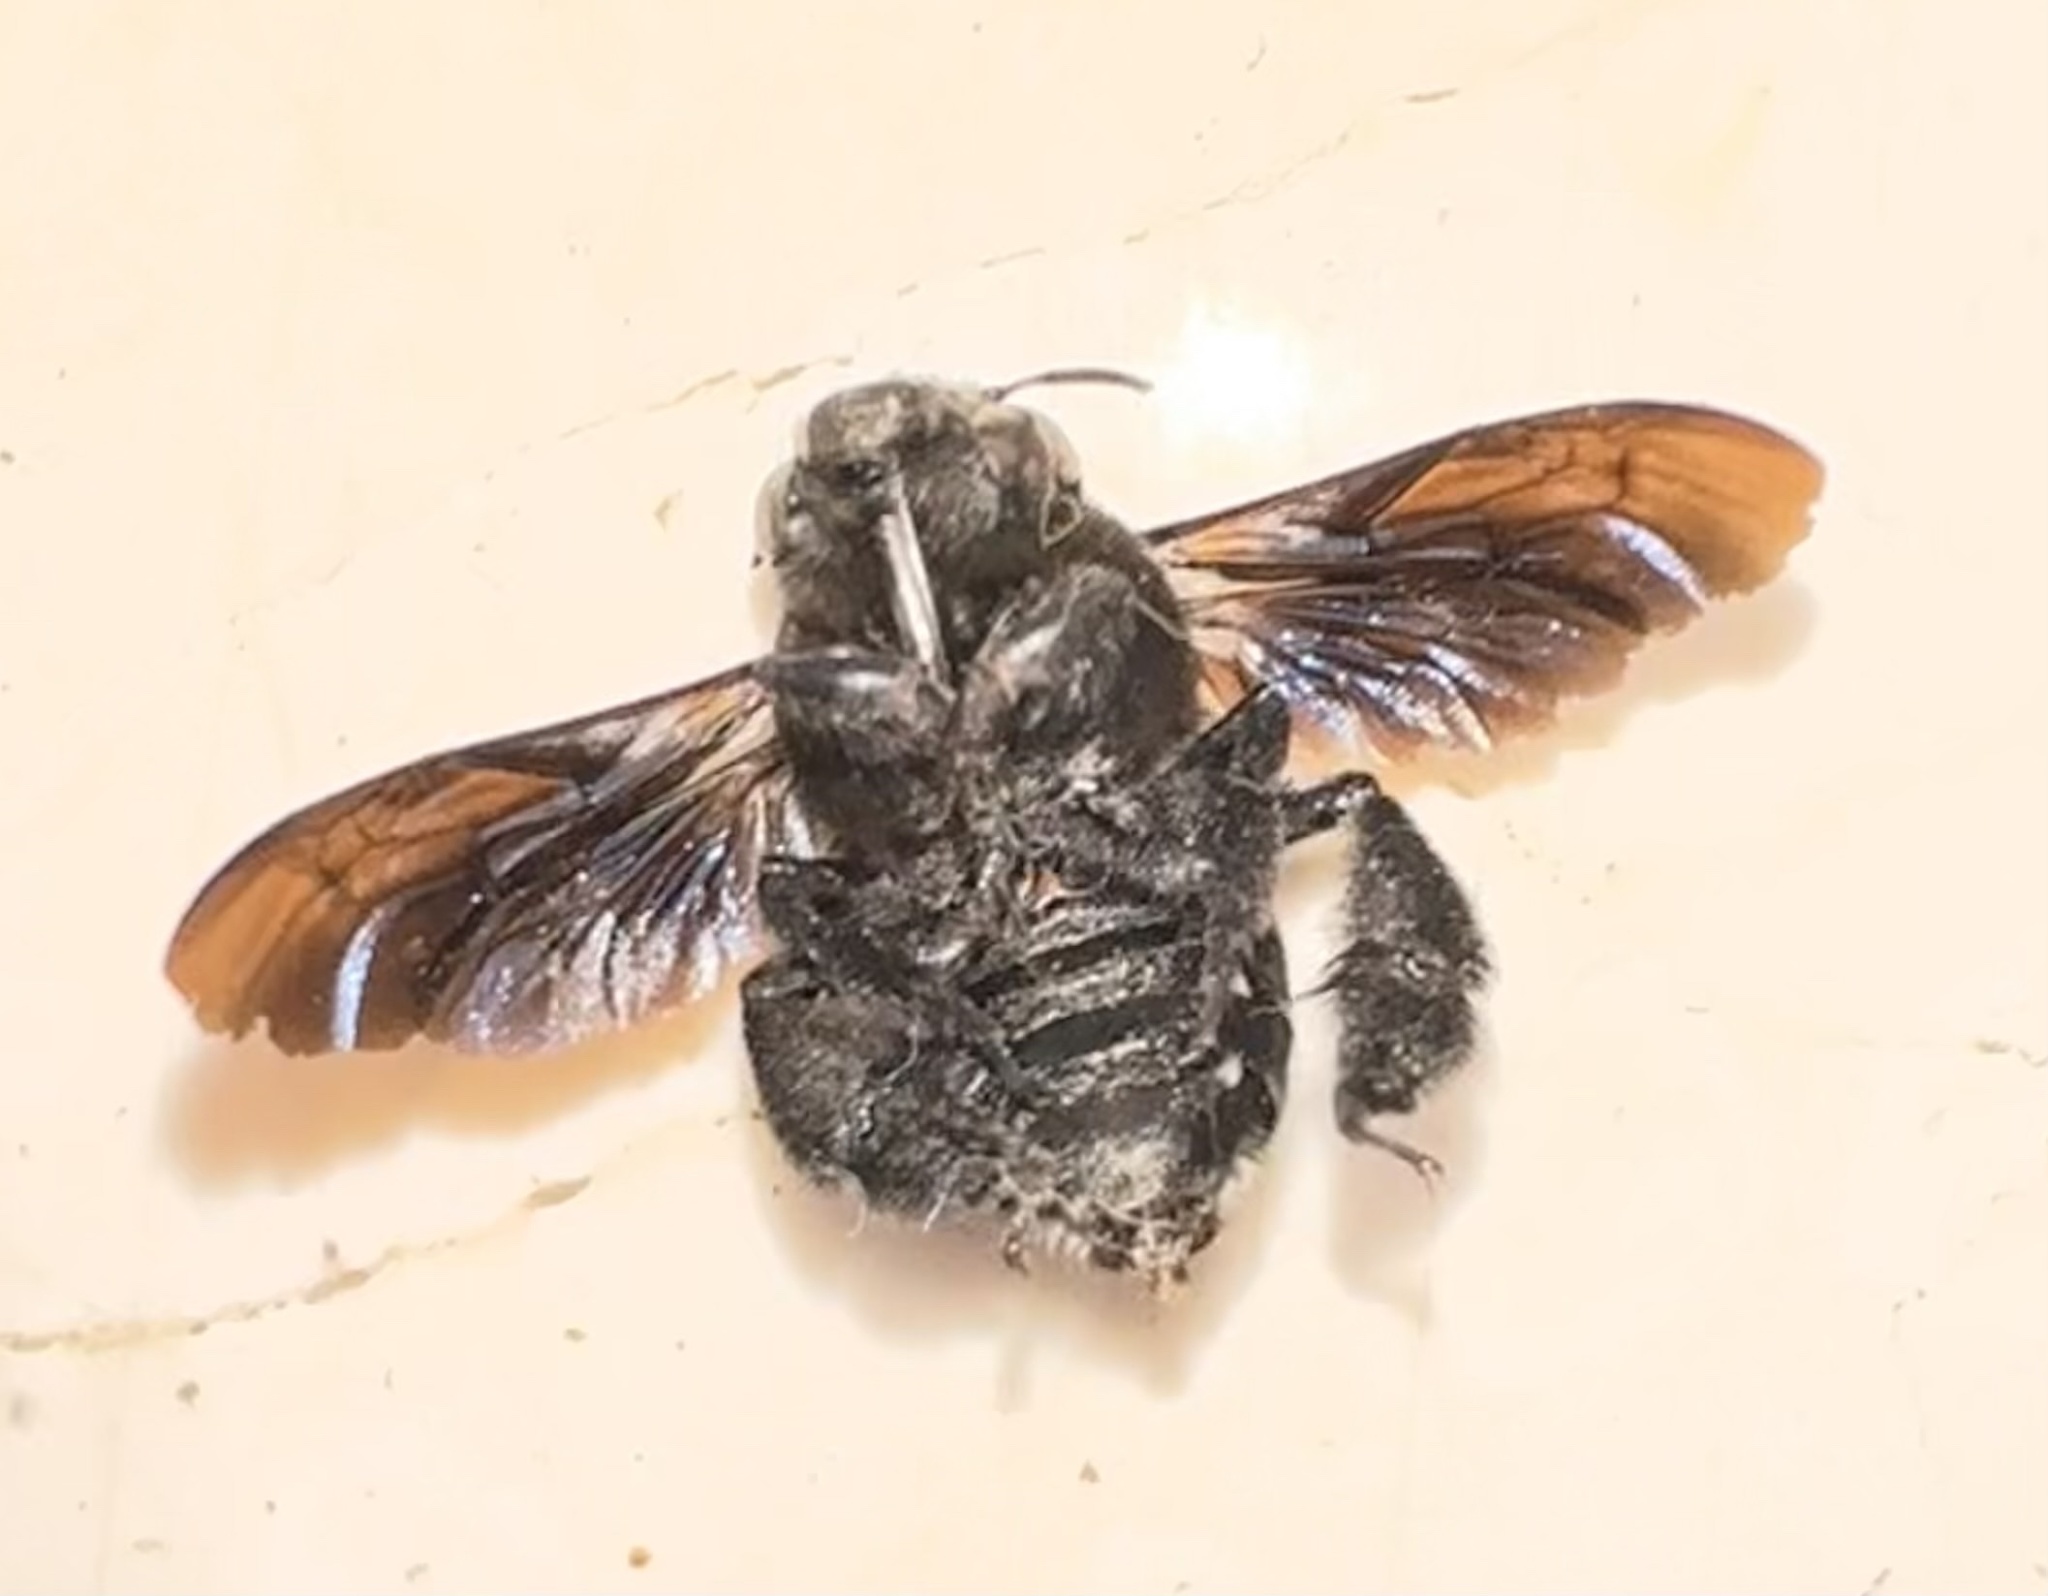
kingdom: Animalia
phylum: Arthropoda
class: Insecta
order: Hymenoptera
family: Apidae
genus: Amegilla
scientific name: Amegilla violacea
